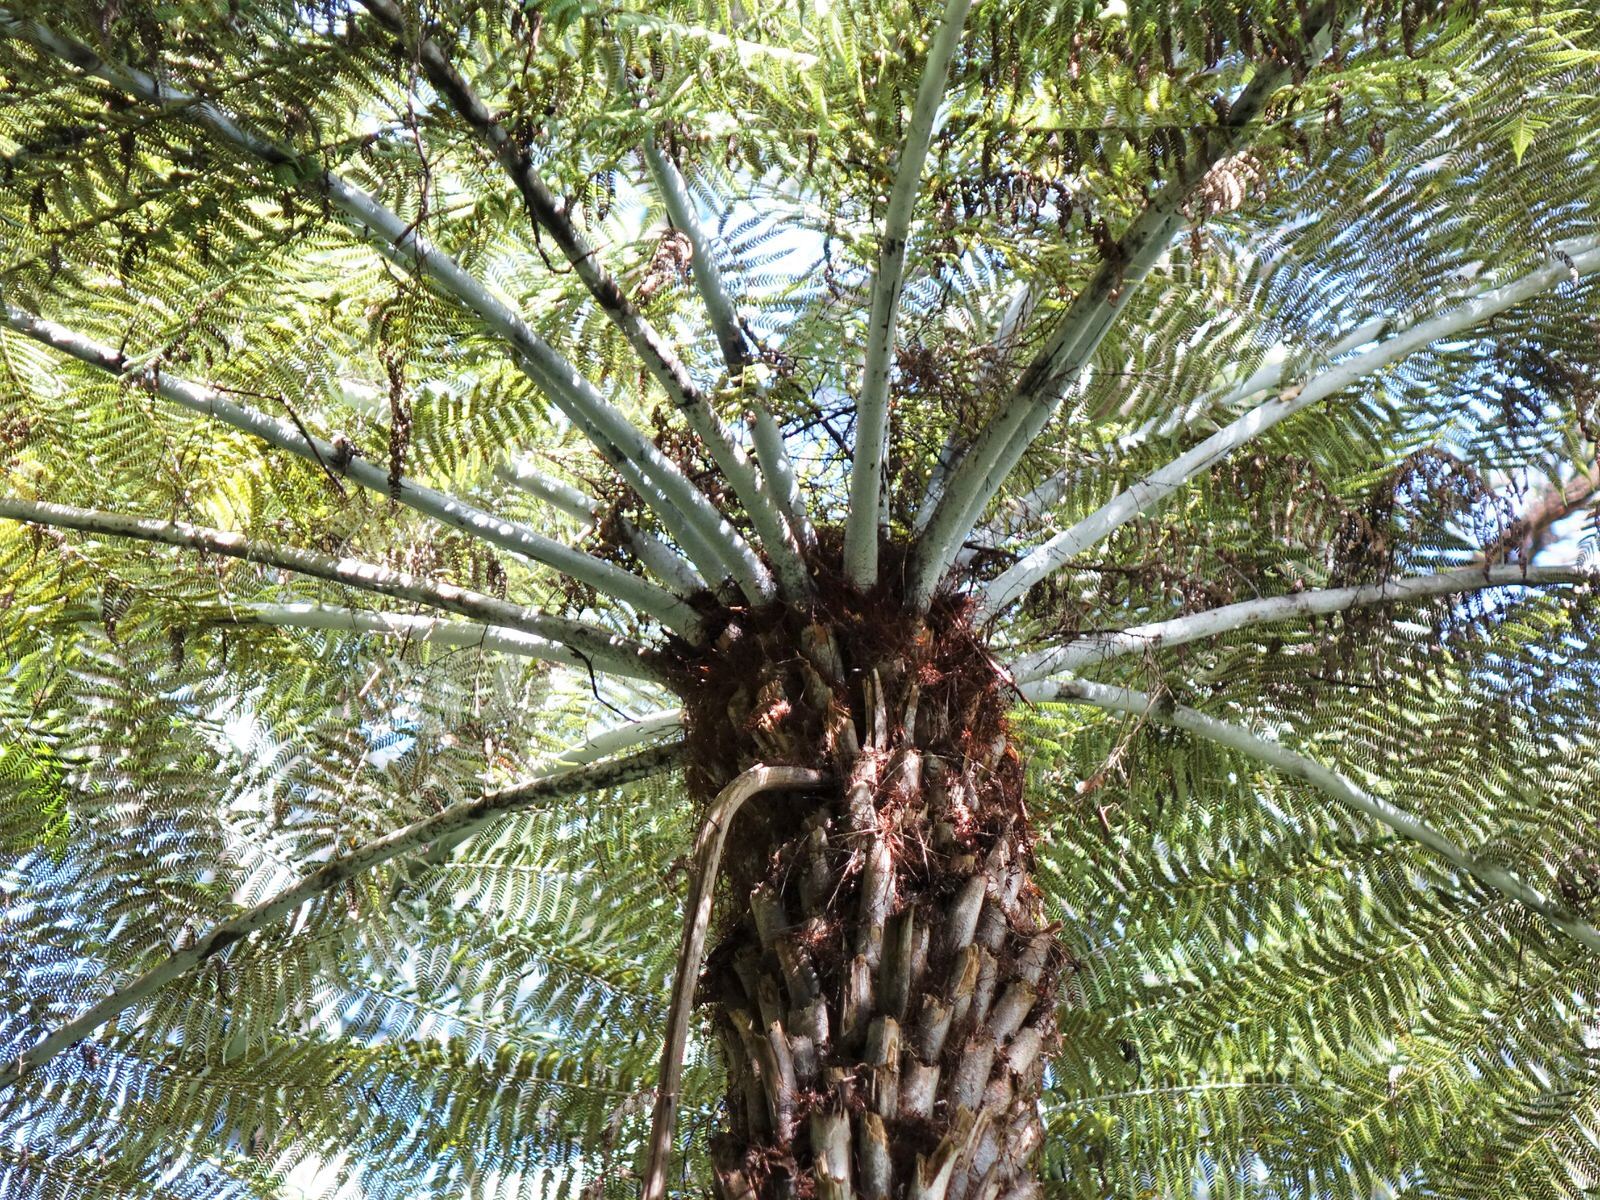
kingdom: Plantae
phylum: Tracheophyta
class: Polypodiopsida
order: Cyatheales
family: Cyatheaceae
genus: Alsophila
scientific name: Alsophila dealbata
